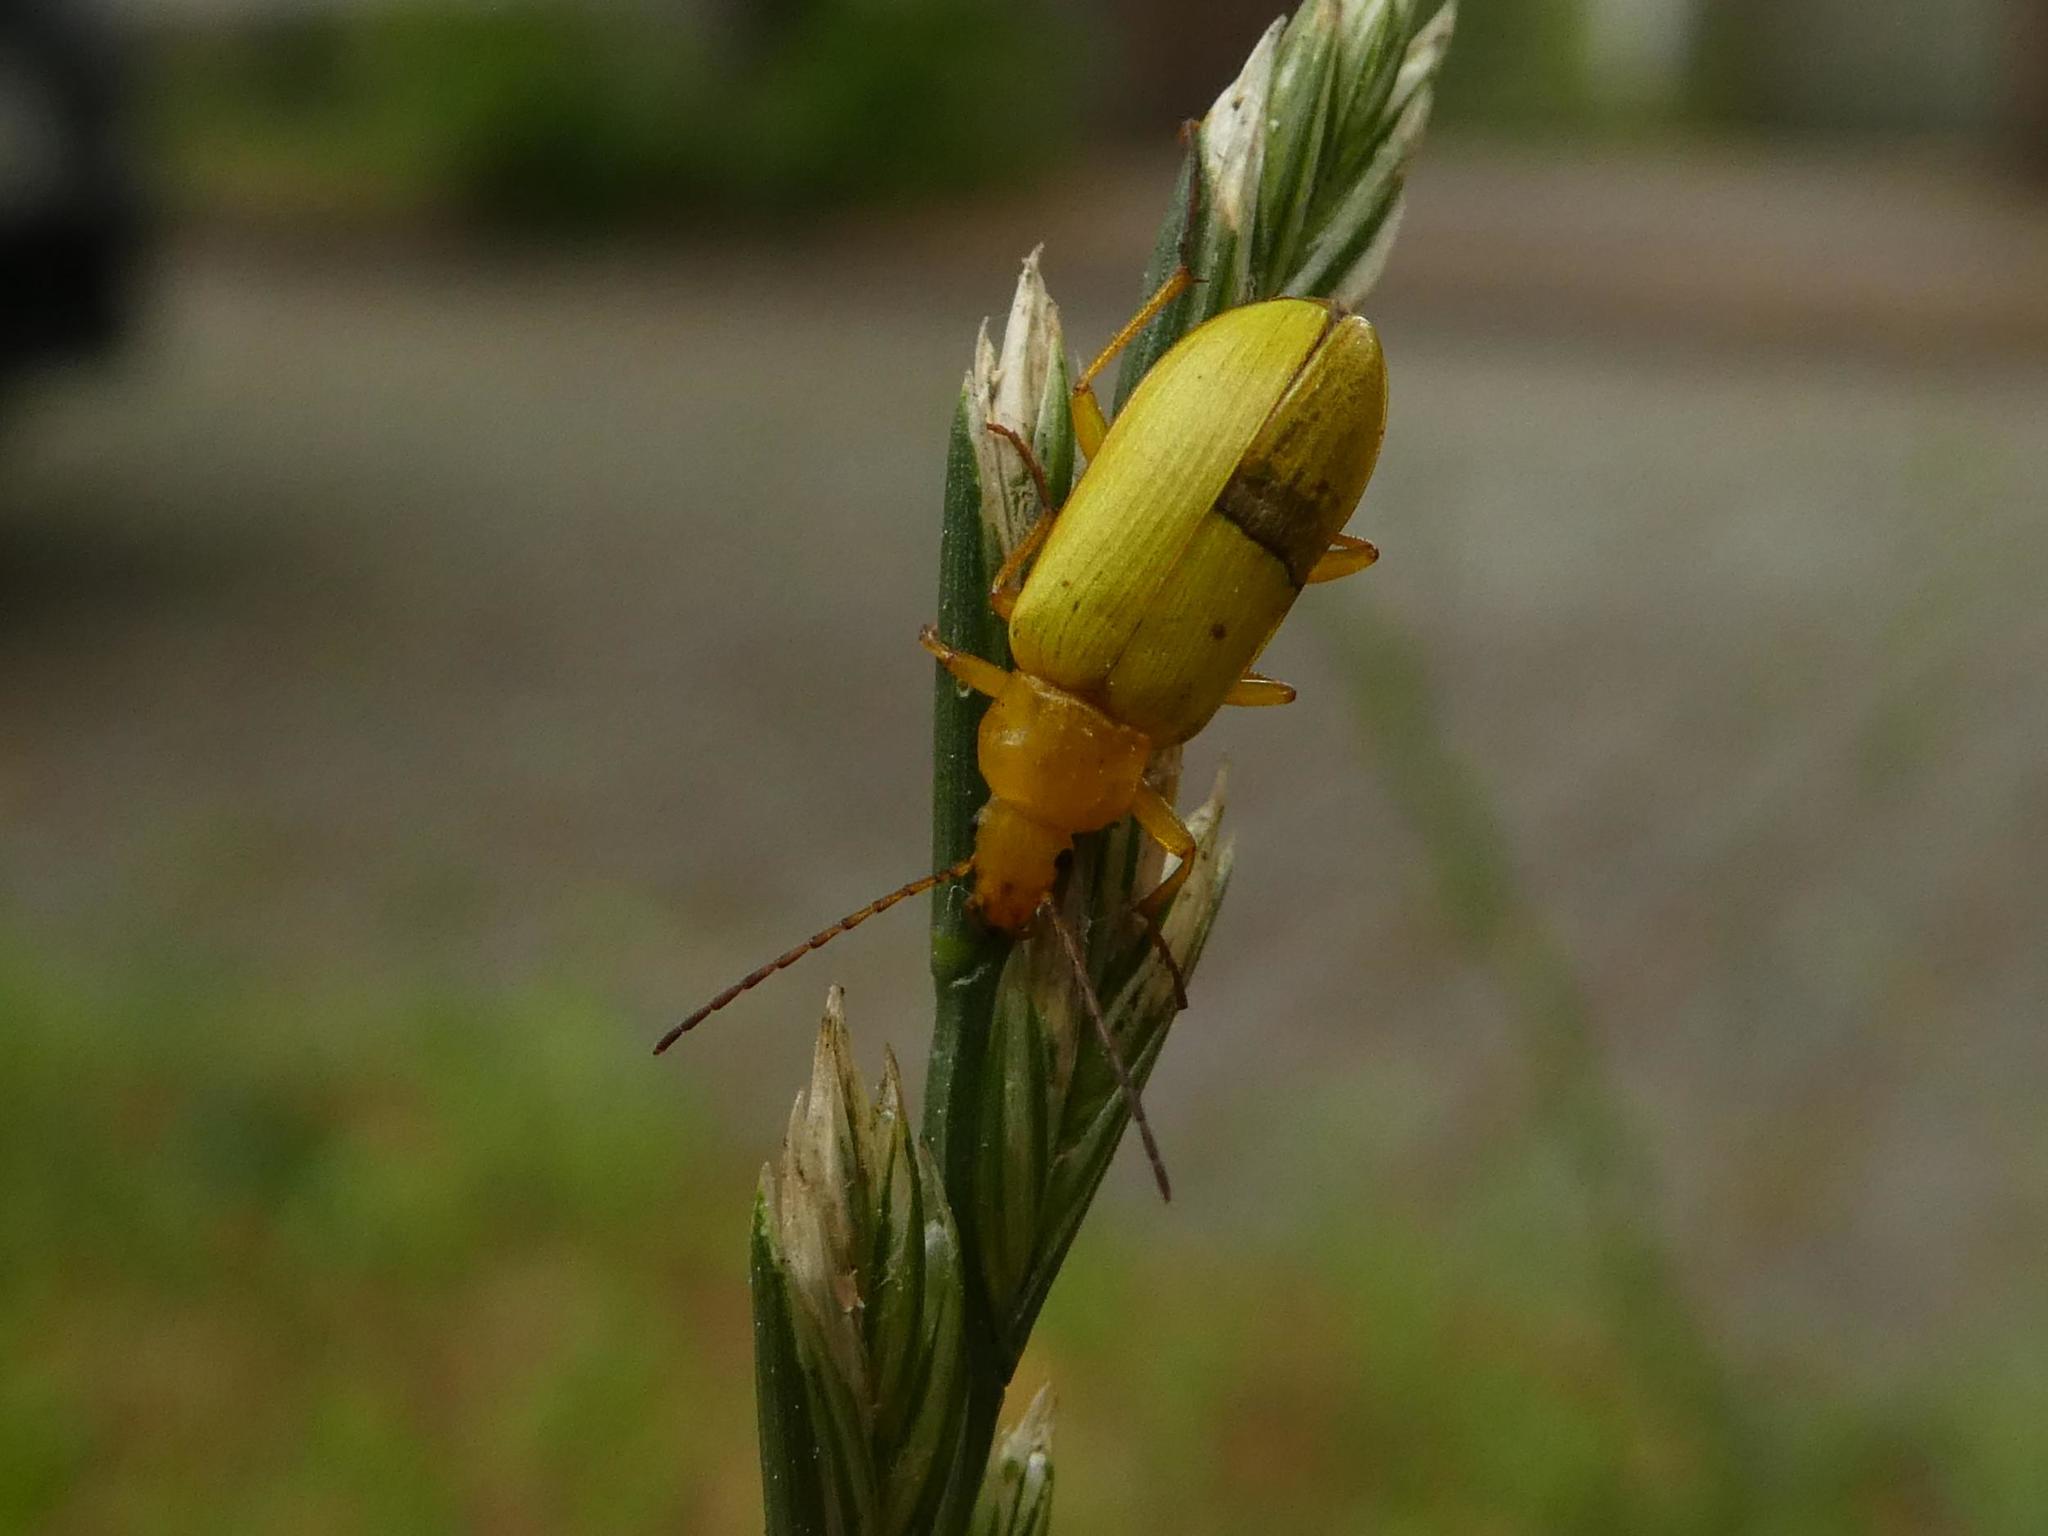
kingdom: Animalia
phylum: Arthropoda
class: Insecta
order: Coleoptera
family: Tenebrionidae
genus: Cteniopus
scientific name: Cteniopus sulphureus
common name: Sulphur beetle
